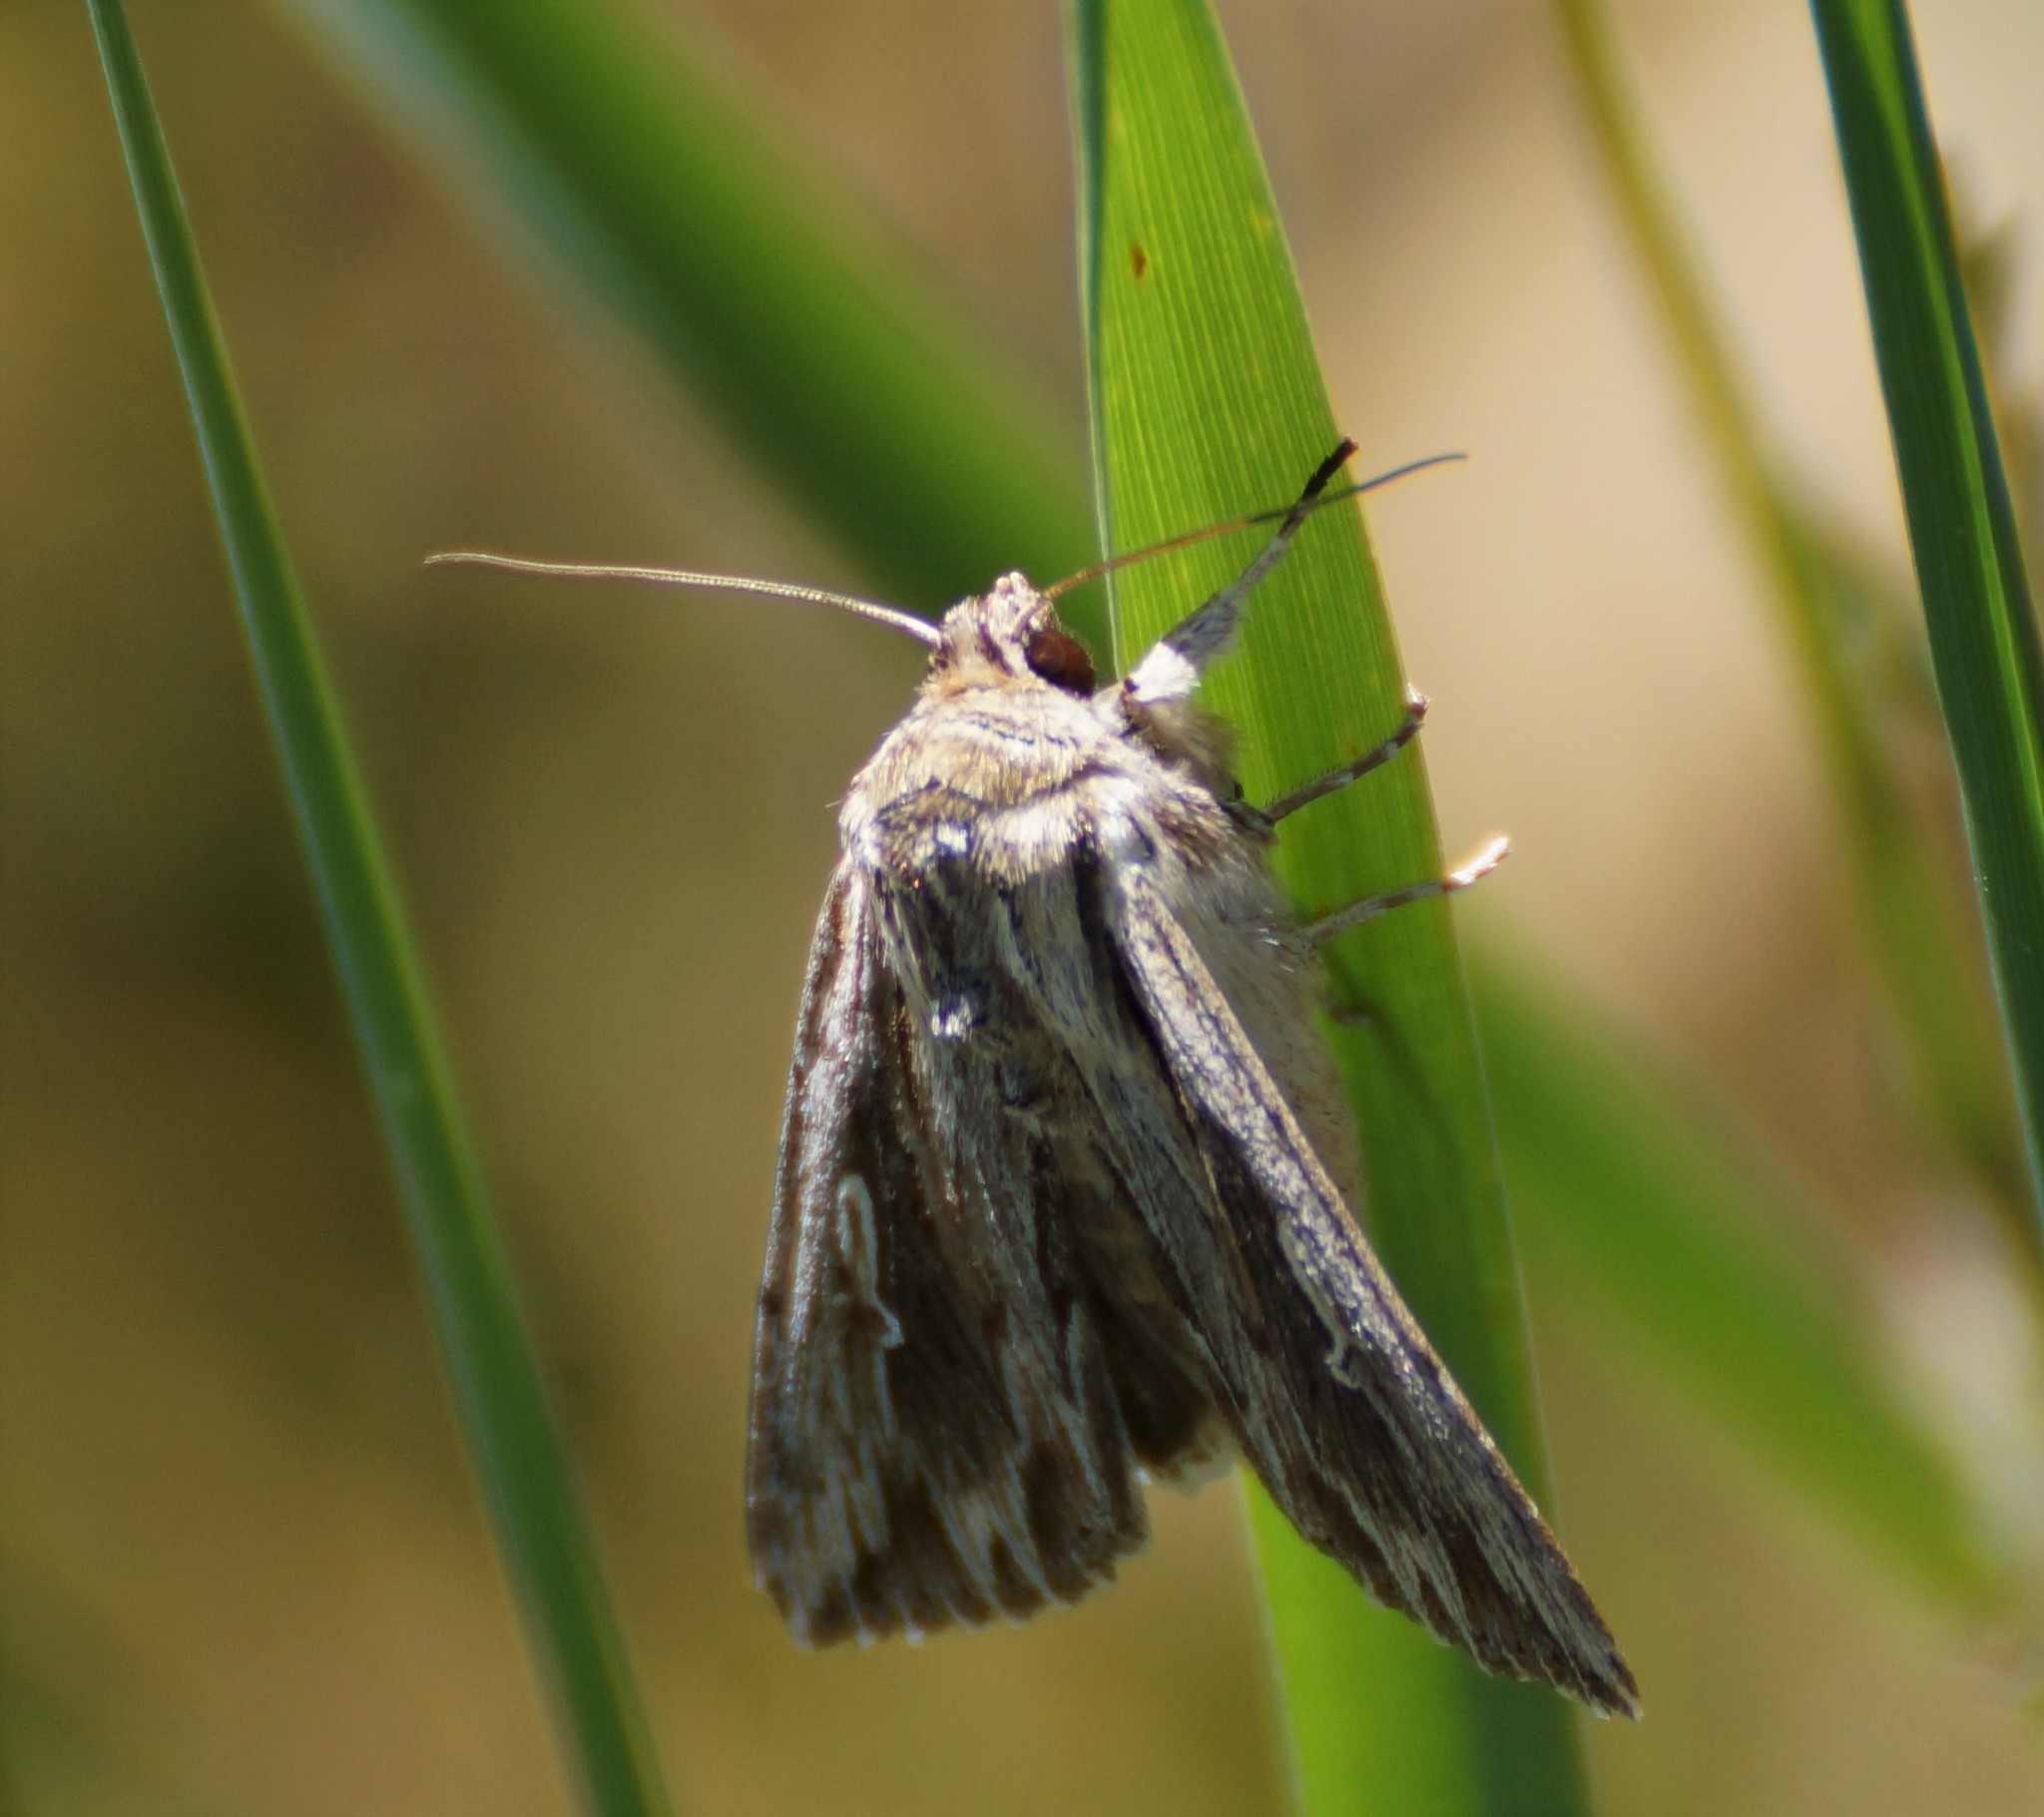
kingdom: Animalia
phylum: Arthropoda
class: Insecta
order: Lepidoptera
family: Noctuidae
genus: Persectania
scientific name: Persectania ewingii
